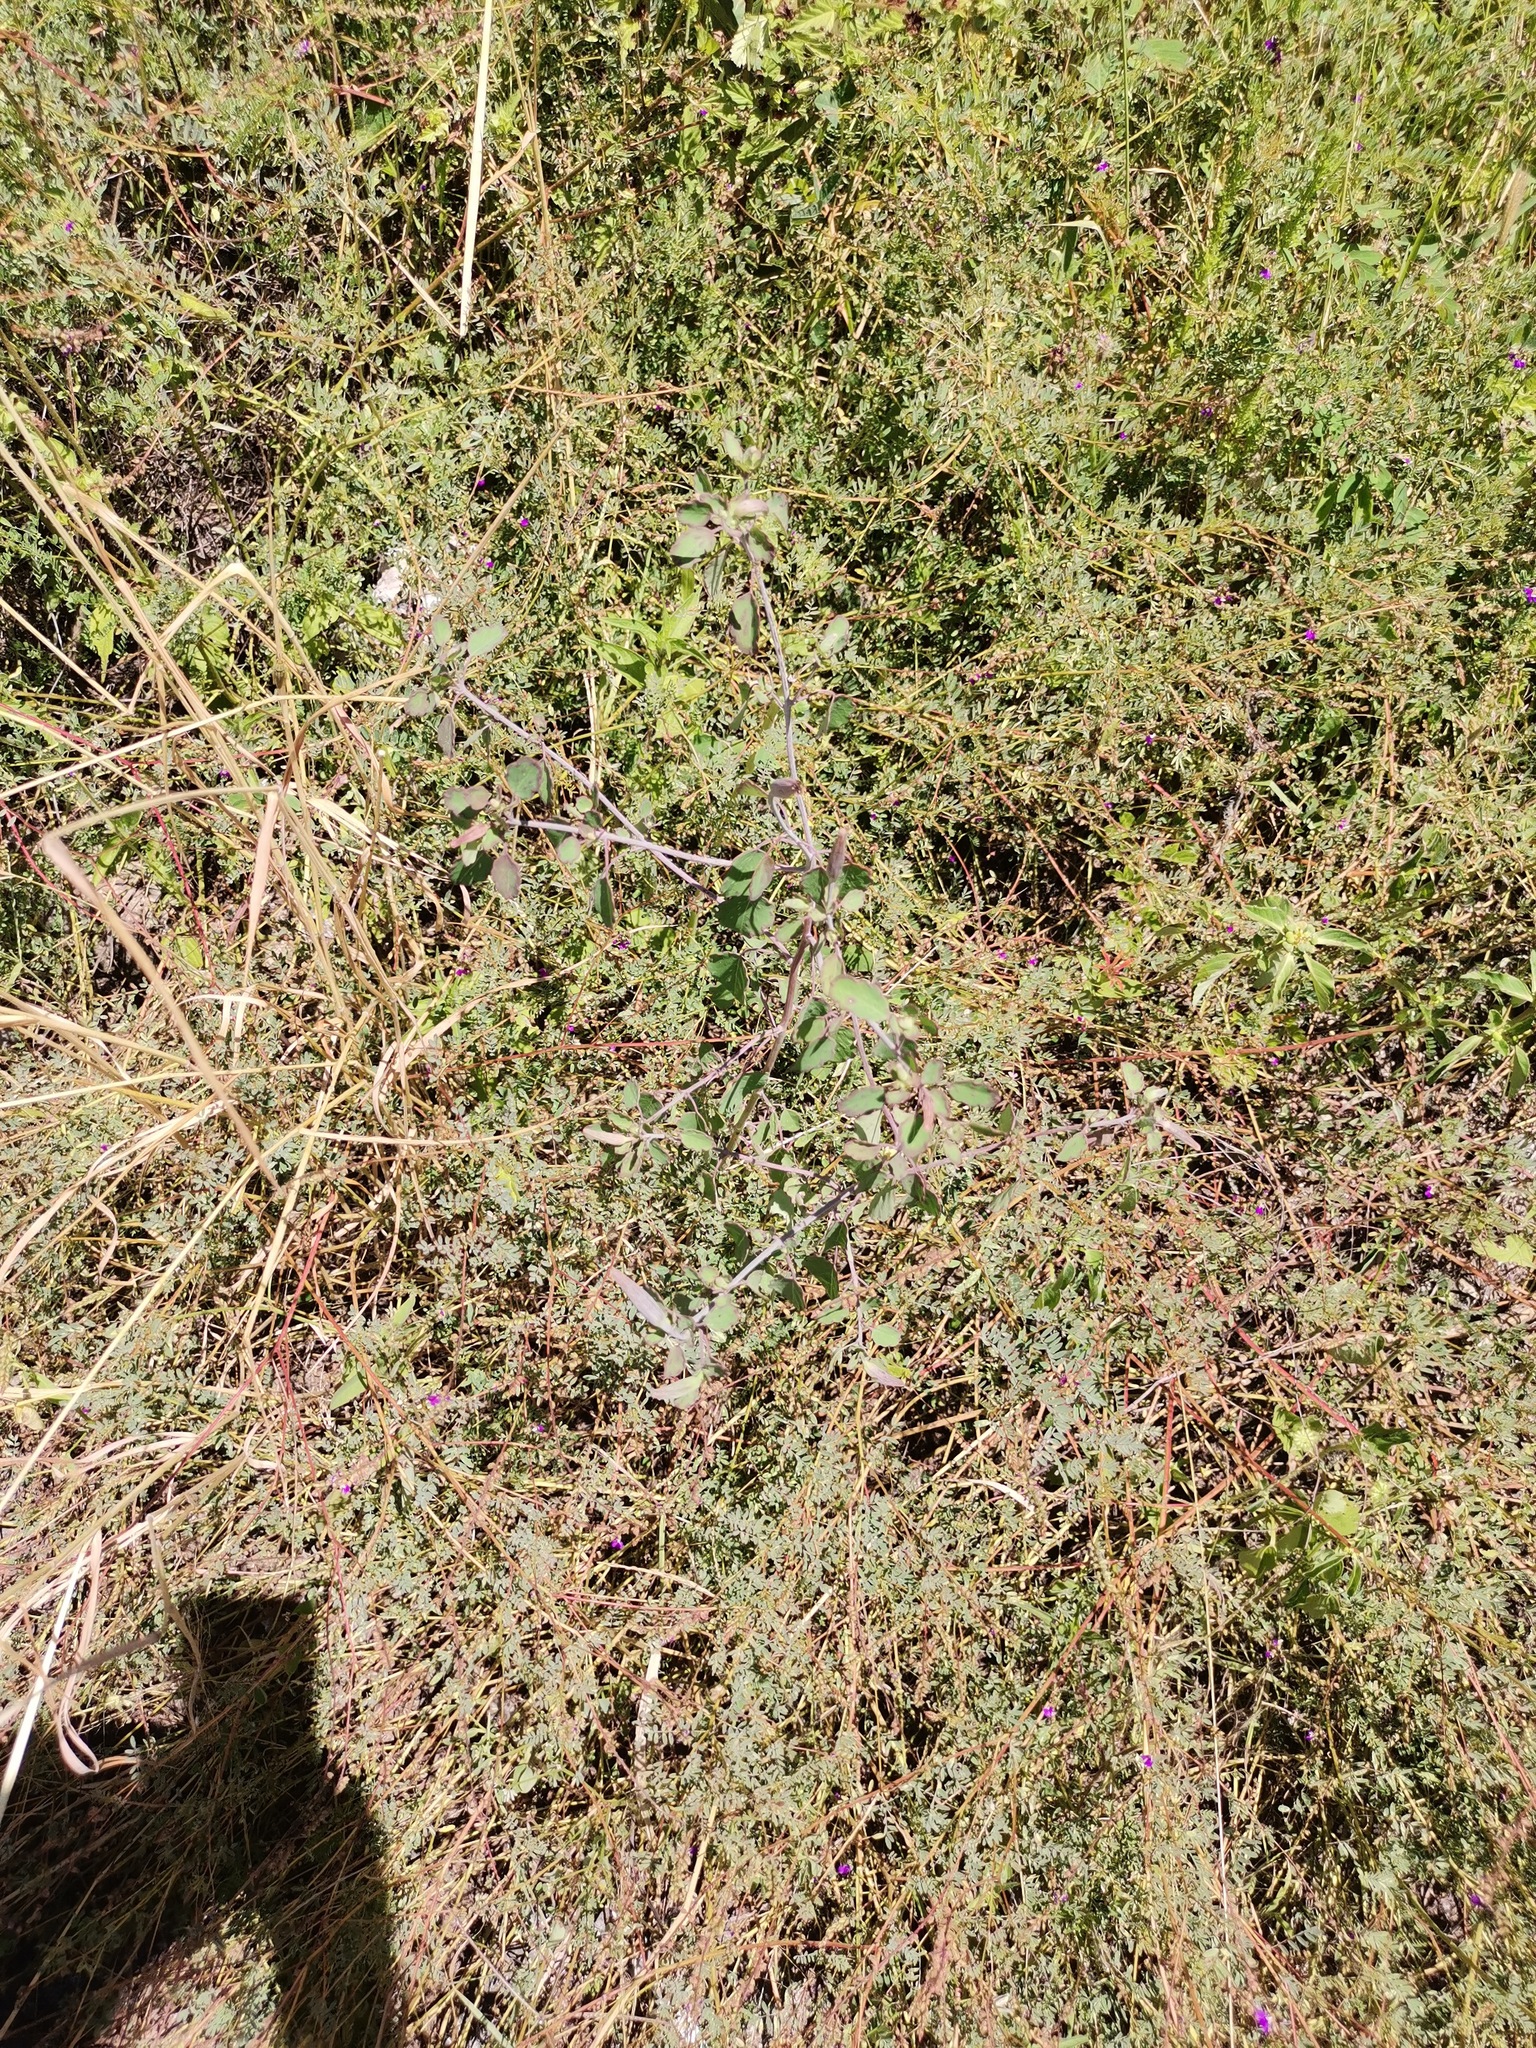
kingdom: Plantae
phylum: Tracheophyta
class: Magnoliopsida
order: Asterales
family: Asteraceae
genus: Porophyllum
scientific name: Porophyllum ruderale
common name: Yerba porosa
